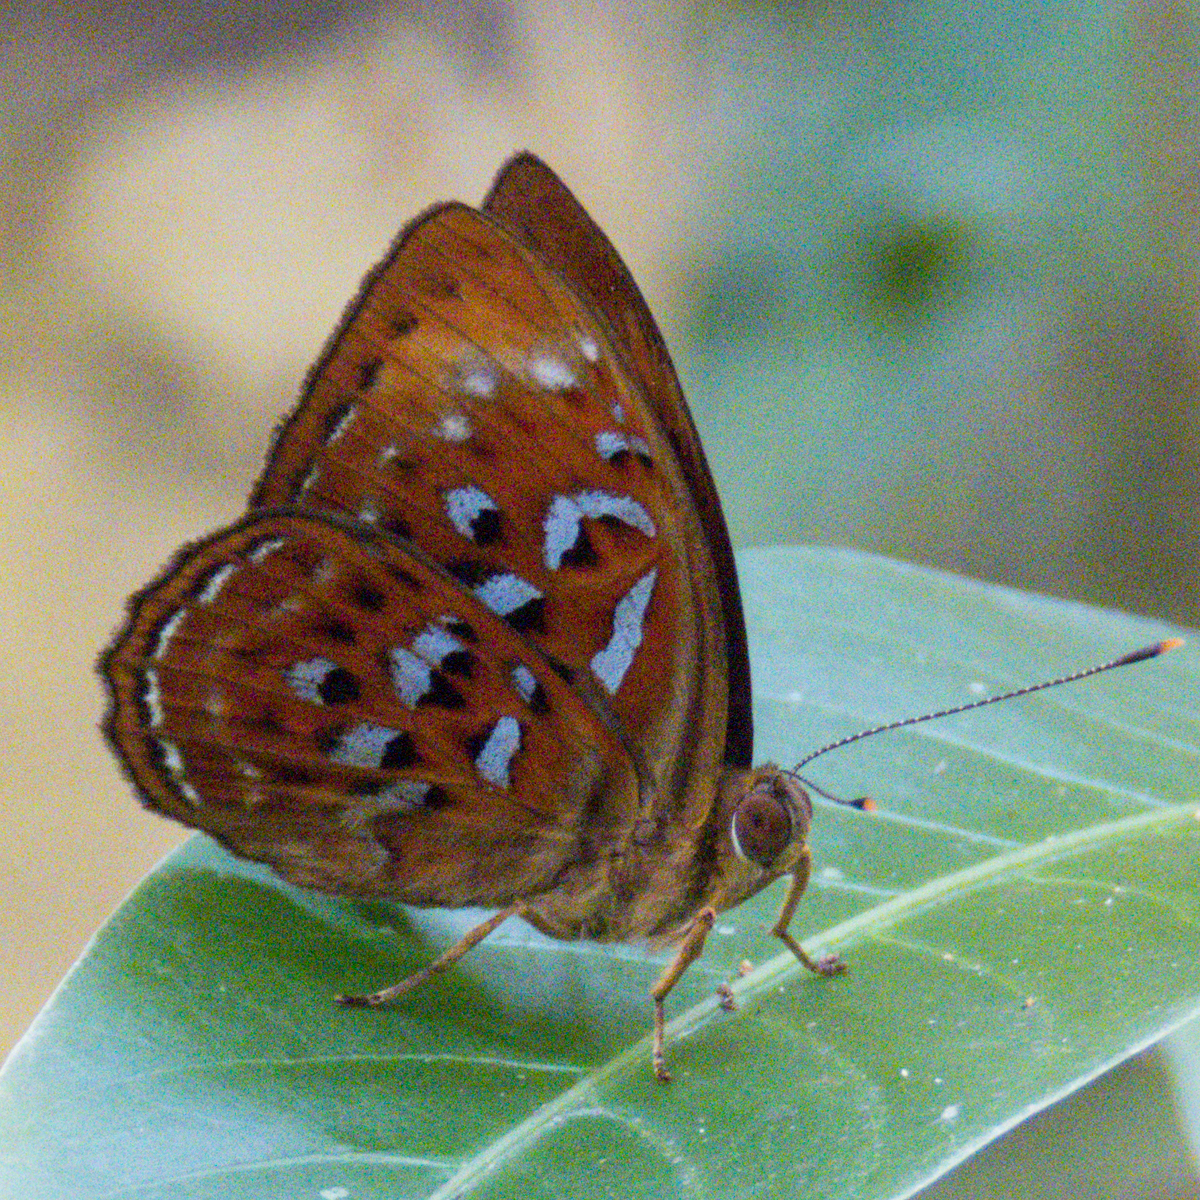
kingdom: Animalia
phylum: Arthropoda
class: Insecta
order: Lepidoptera
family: Erebidae
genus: Dysschema
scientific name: Dysschema
